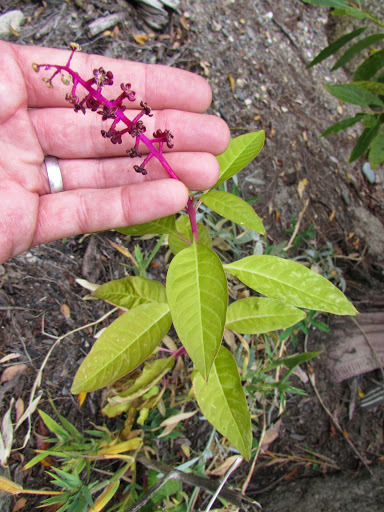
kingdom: Plantae
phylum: Tracheophyta
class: Magnoliopsida
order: Caryophyllales
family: Phytolaccaceae
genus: Phytolacca
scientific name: Phytolacca americana
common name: American pokeweed
